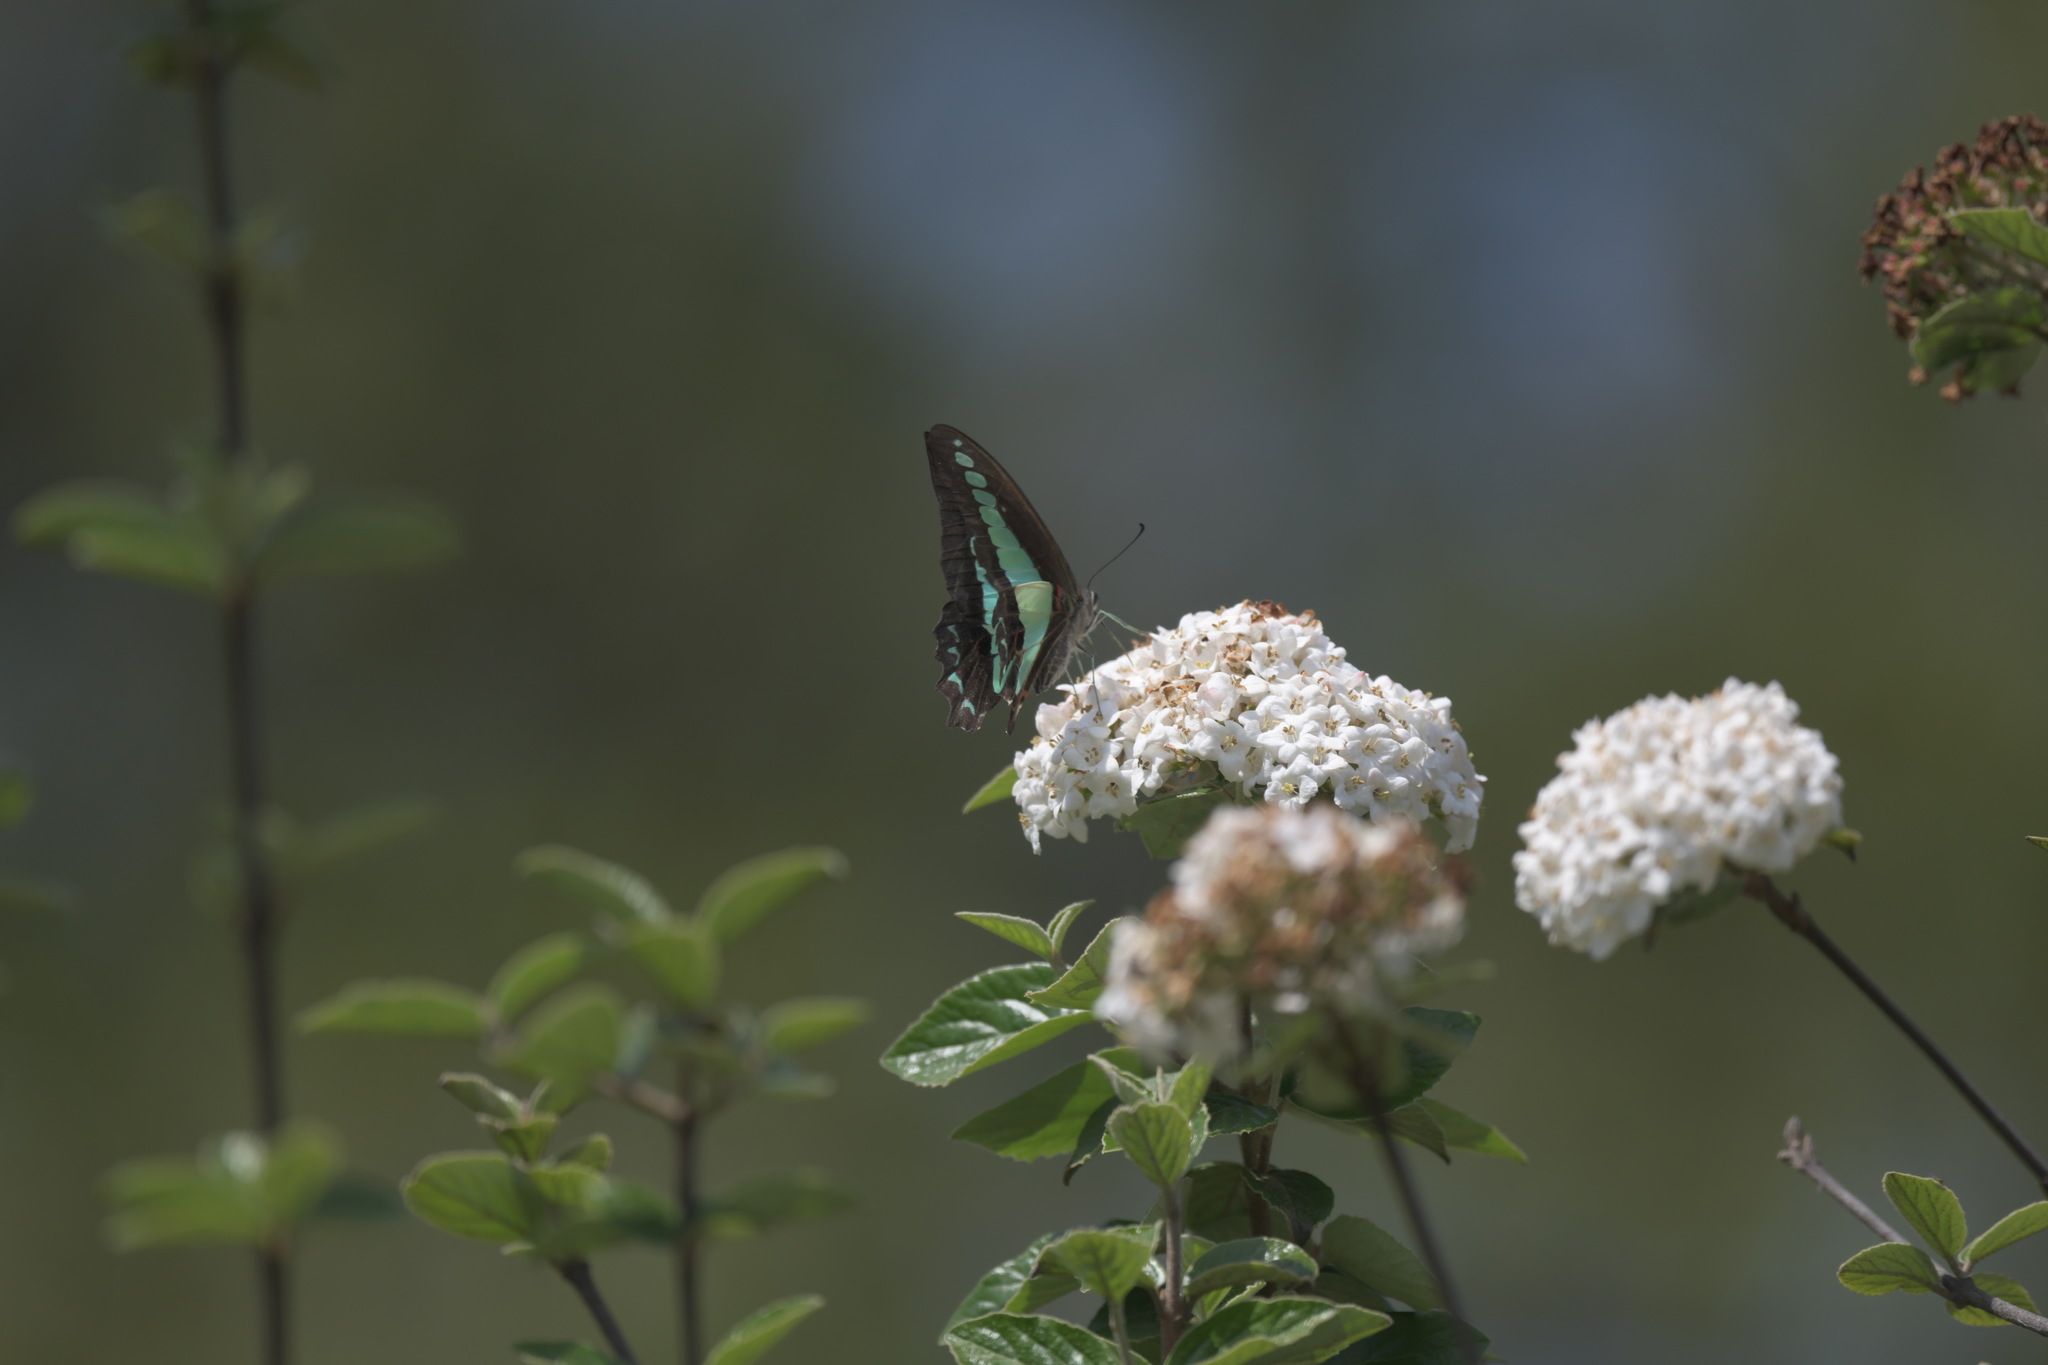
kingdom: Fungi
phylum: Ascomycota
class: Sordariomycetes
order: Microascales
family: Microascaceae
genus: Graphium
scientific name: Graphium sarpedon
